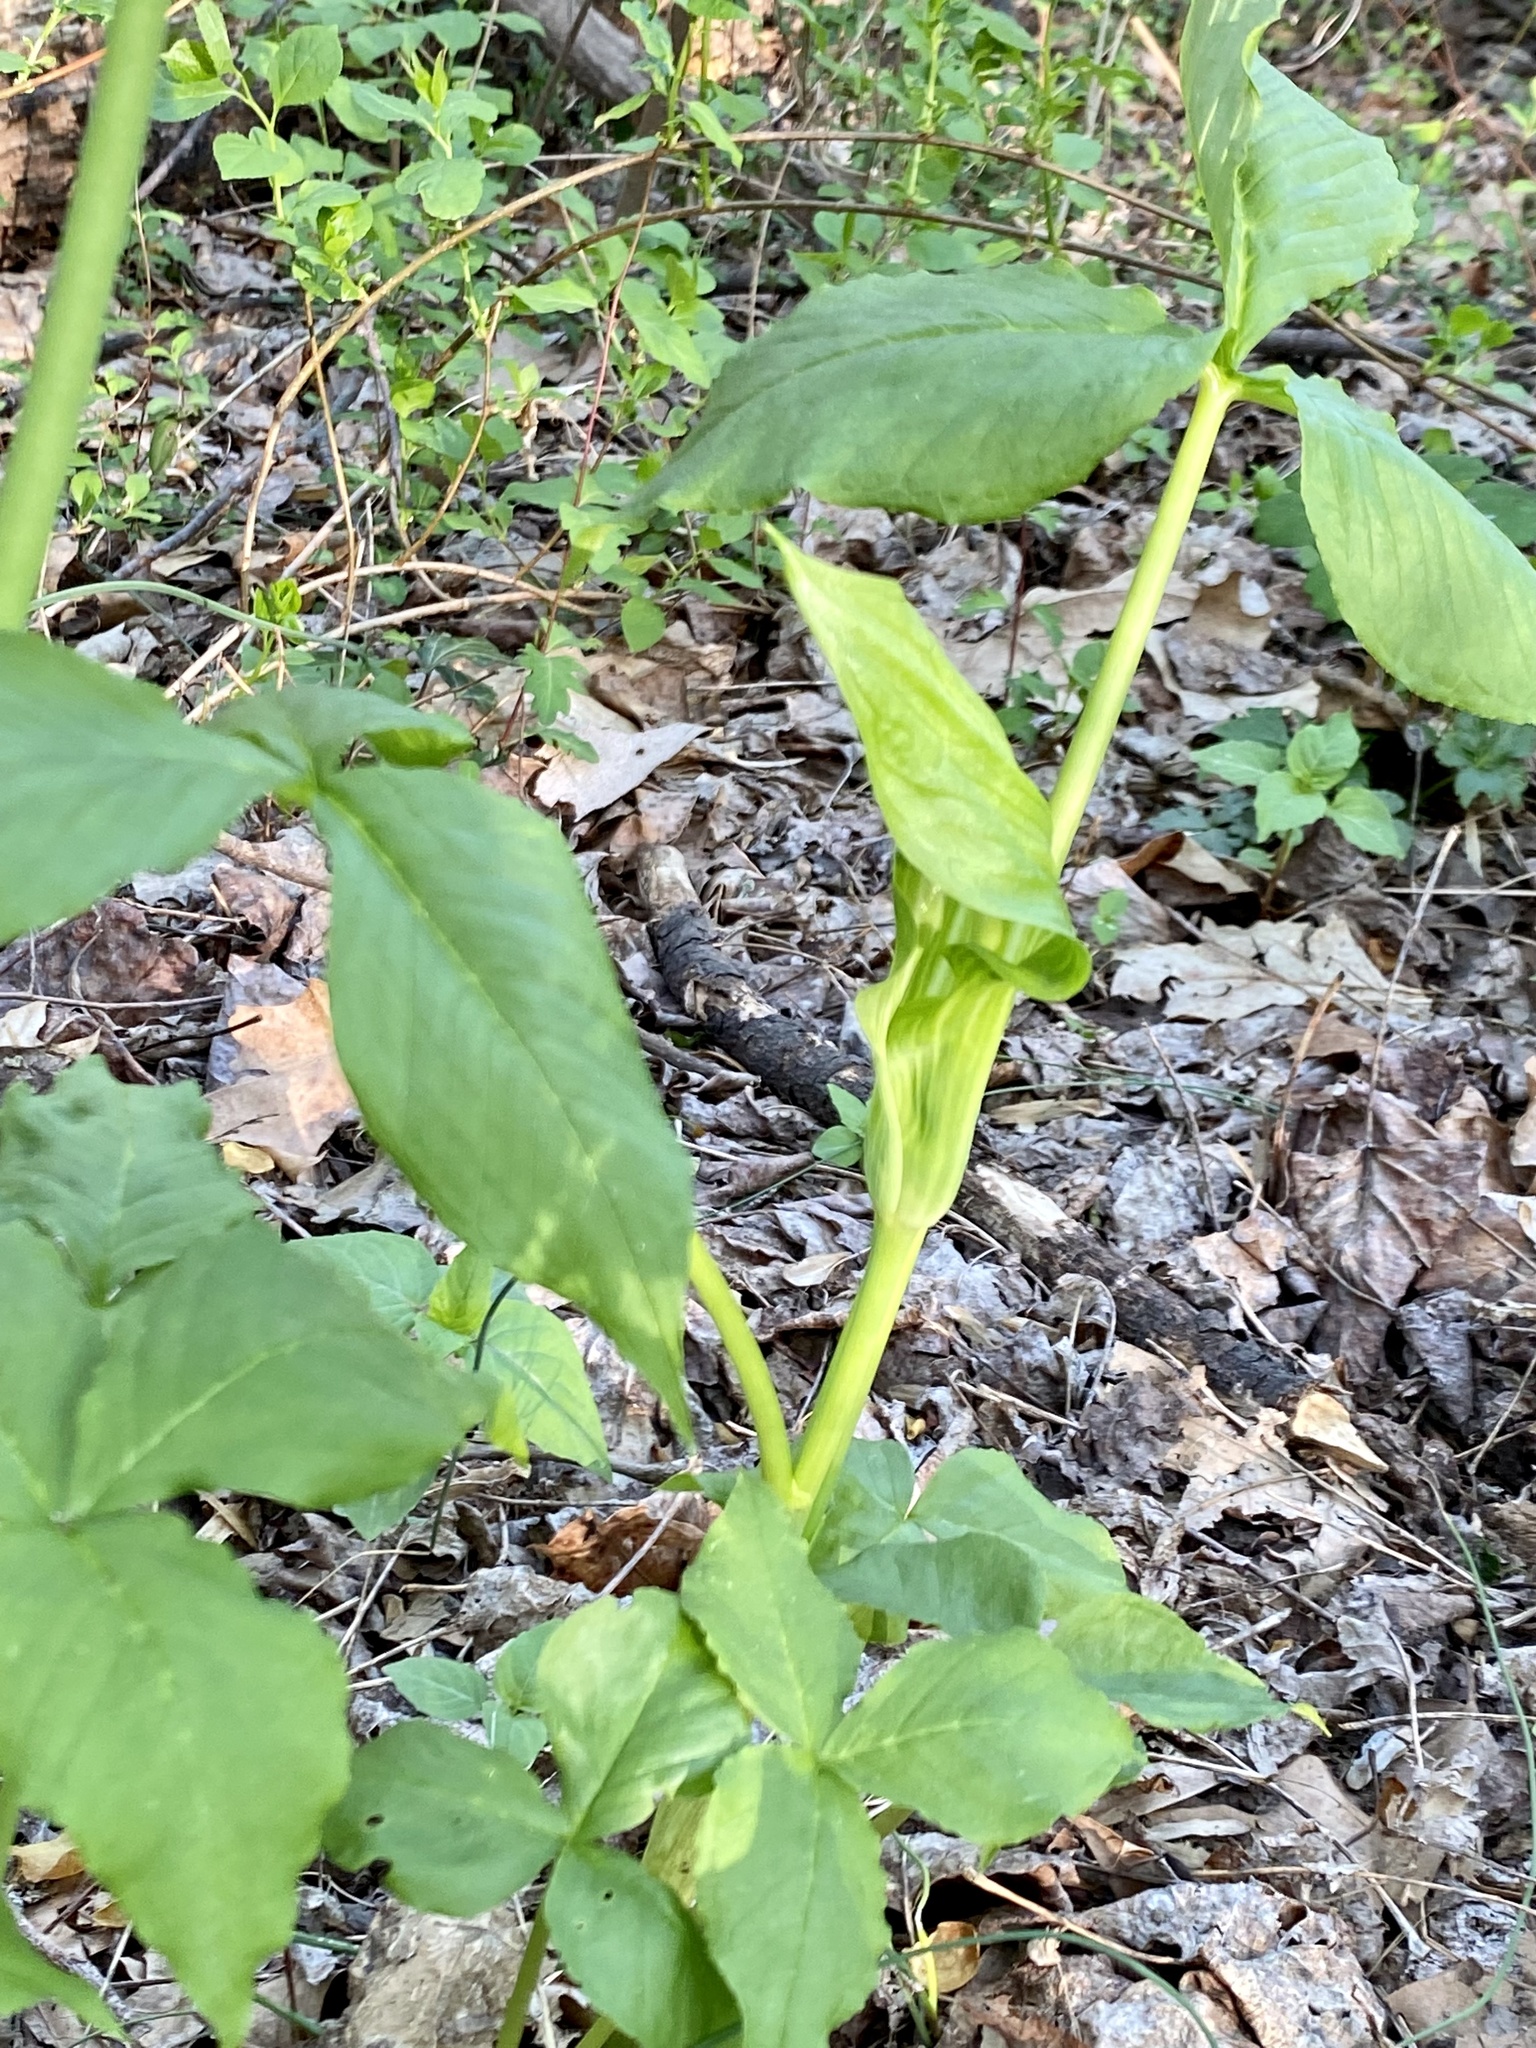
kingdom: Plantae
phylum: Tracheophyta
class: Liliopsida
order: Alismatales
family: Araceae
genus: Arisaema
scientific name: Arisaema triphyllum
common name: Jack-in-the-pulpit
